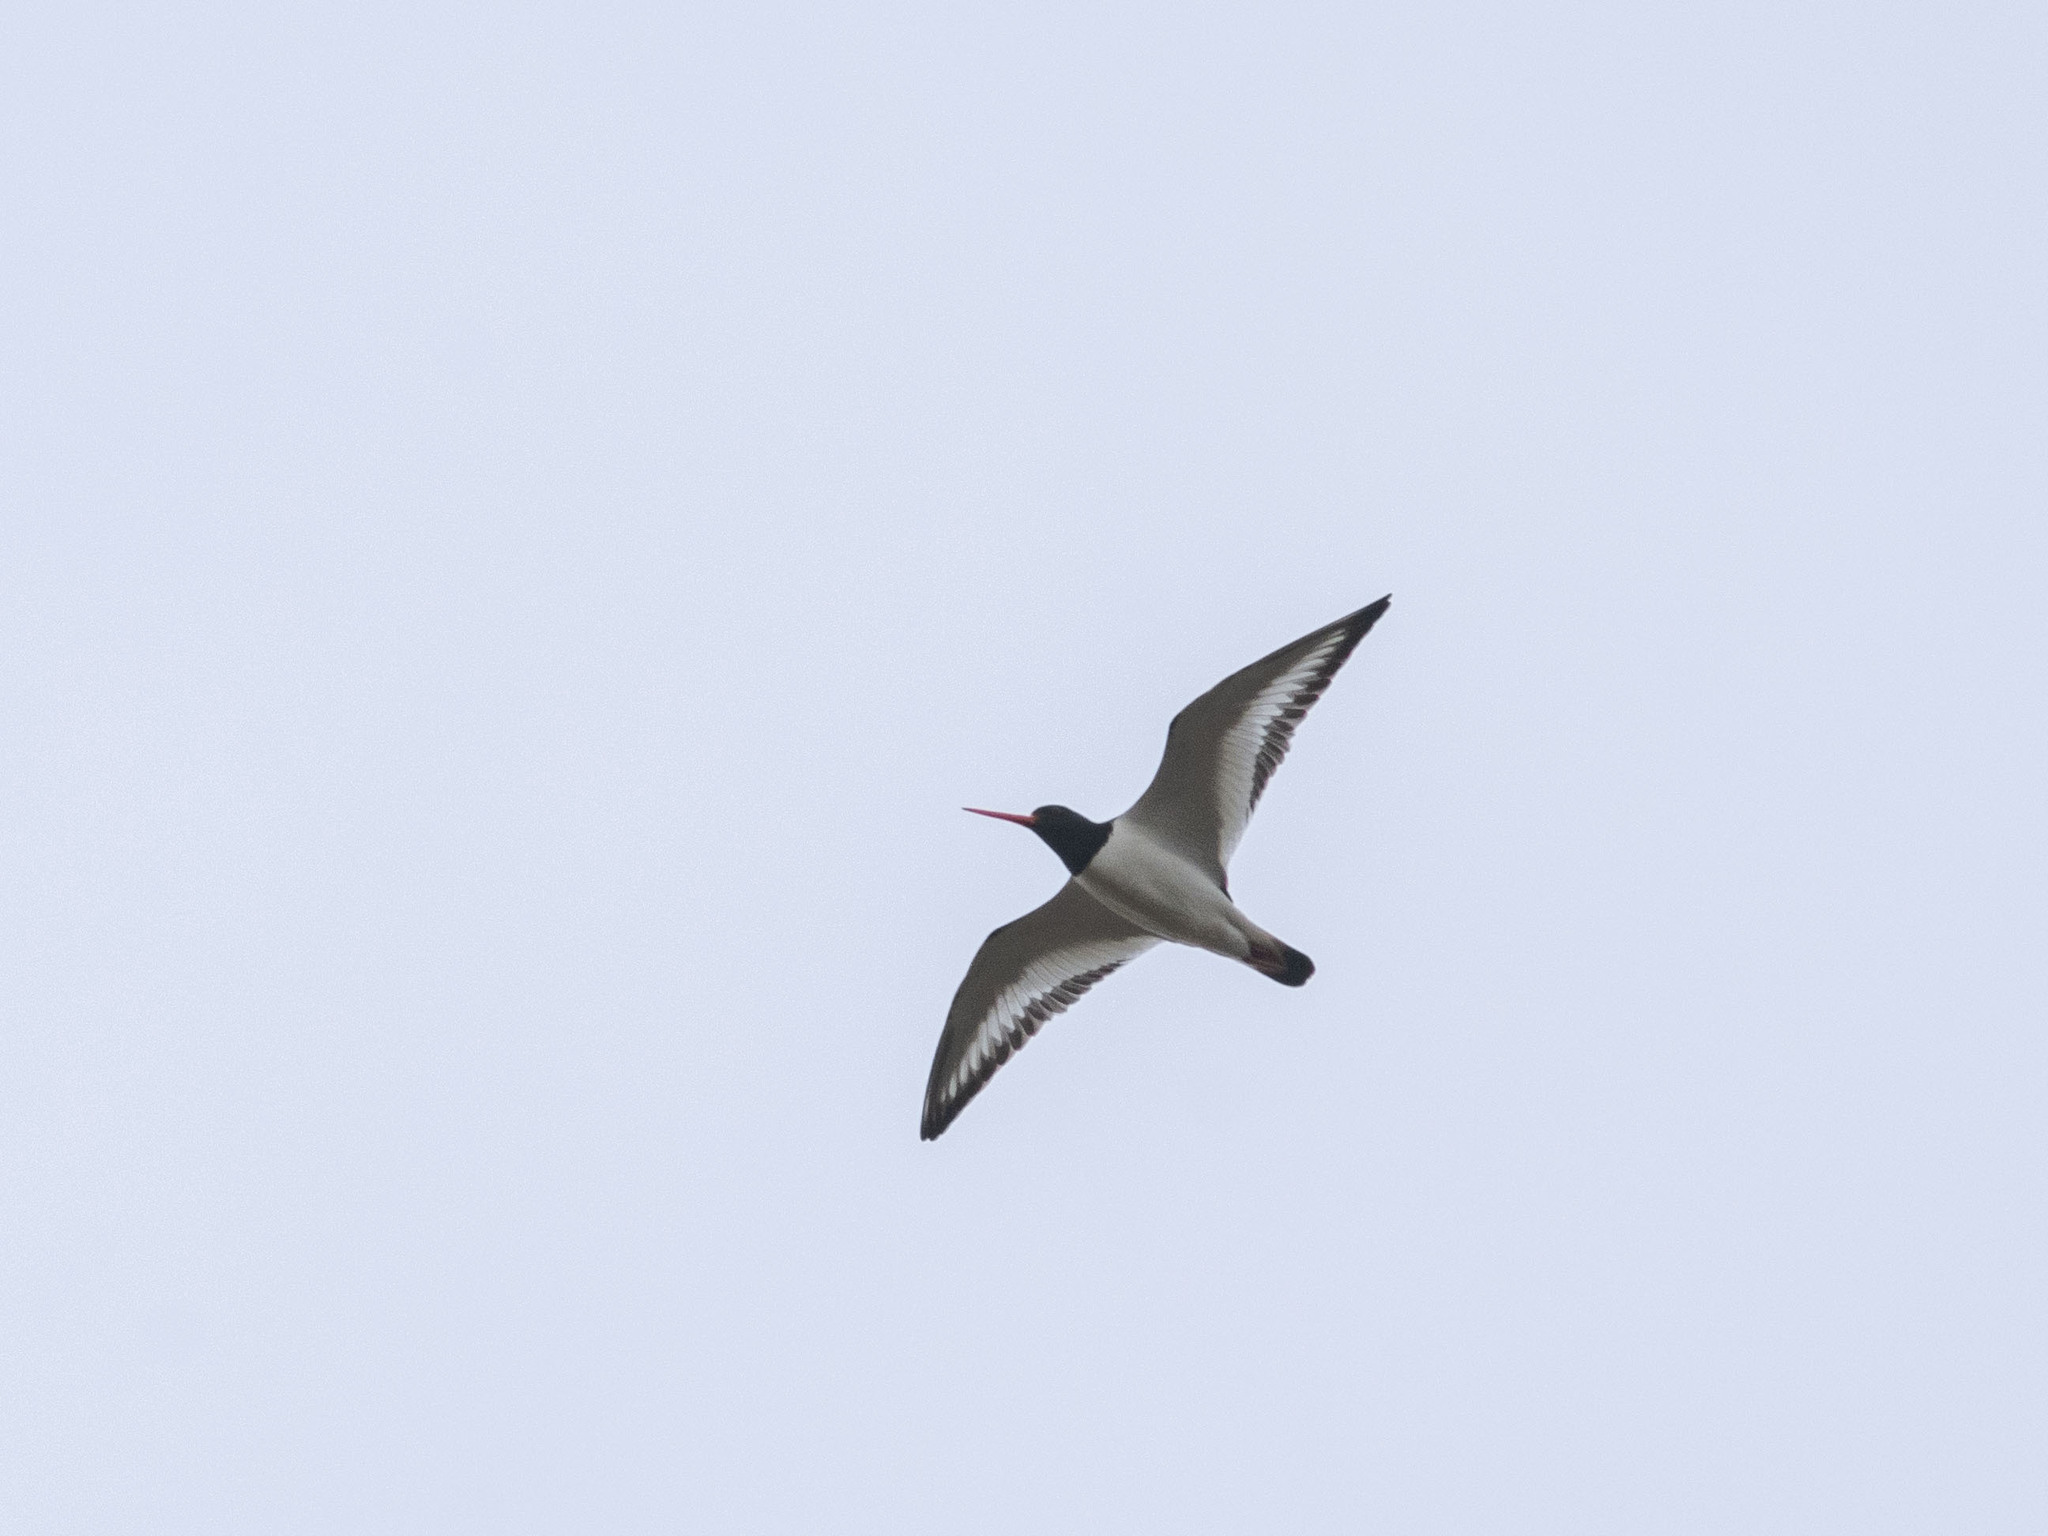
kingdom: Animalia
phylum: Chordata
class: Aves
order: Charadriiformes
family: Haematopodidae
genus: Haematopus
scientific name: Haematopus ostralegus
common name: Eurasian oystercatcher
